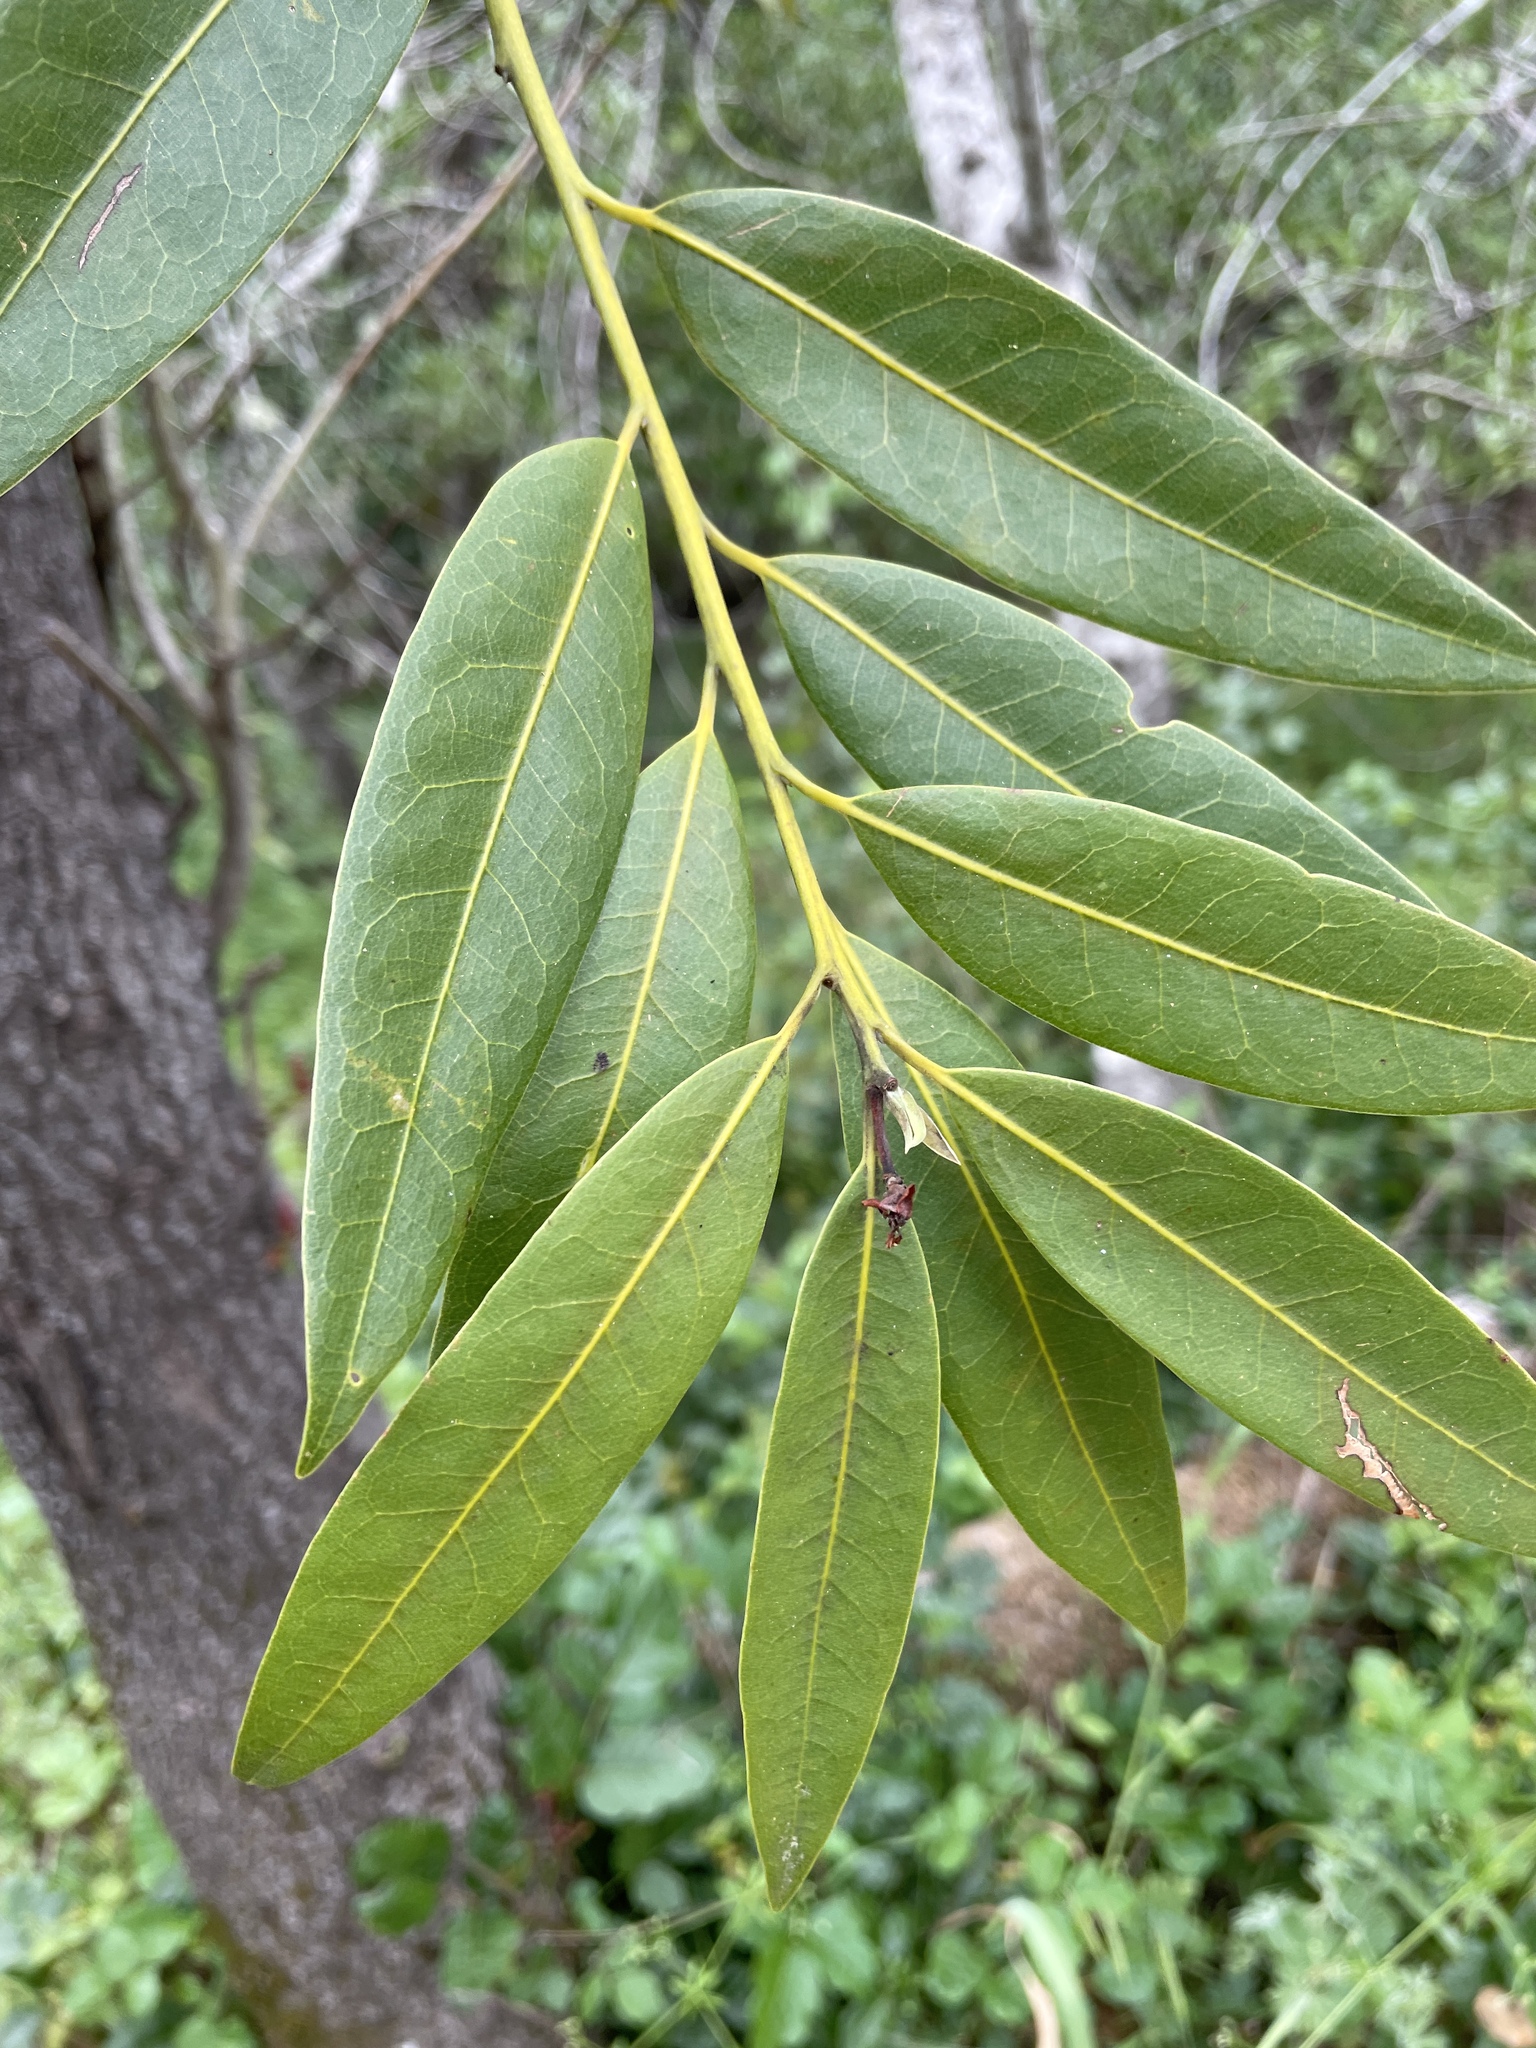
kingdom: Plantae
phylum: Tracheophyta
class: Magnoliopsida
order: Laurales
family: Lauraceae
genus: Umbellularia
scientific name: Umbellularia californica
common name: California bay
